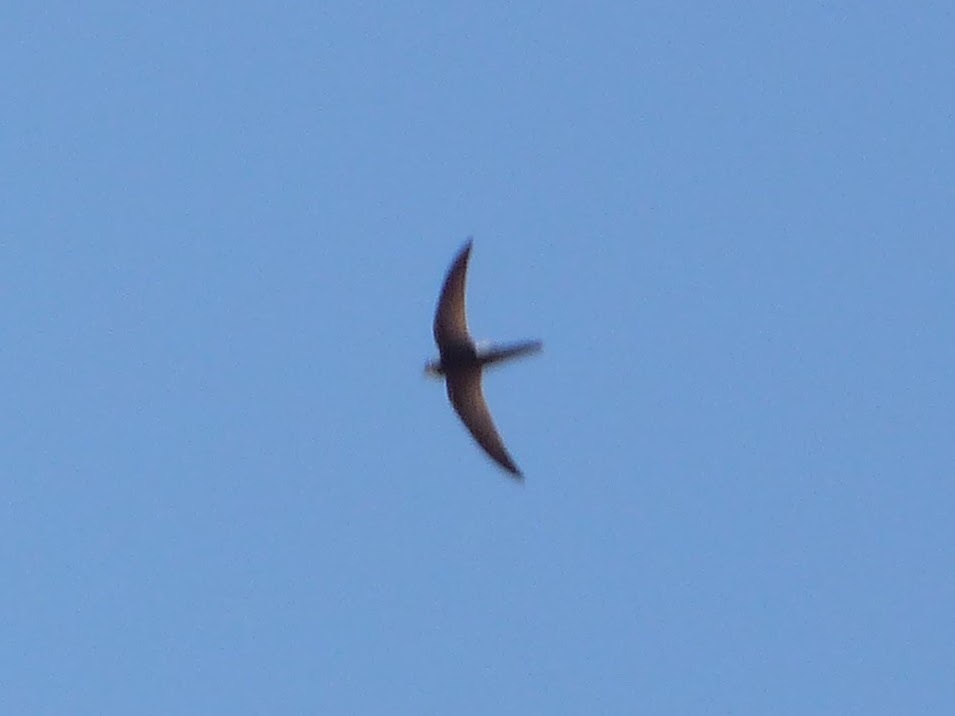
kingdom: Animalia
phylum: Chordata
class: Aves
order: Apodiformes
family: Apodidae
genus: Apus
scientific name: Apus pallidus
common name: Pallid swift
